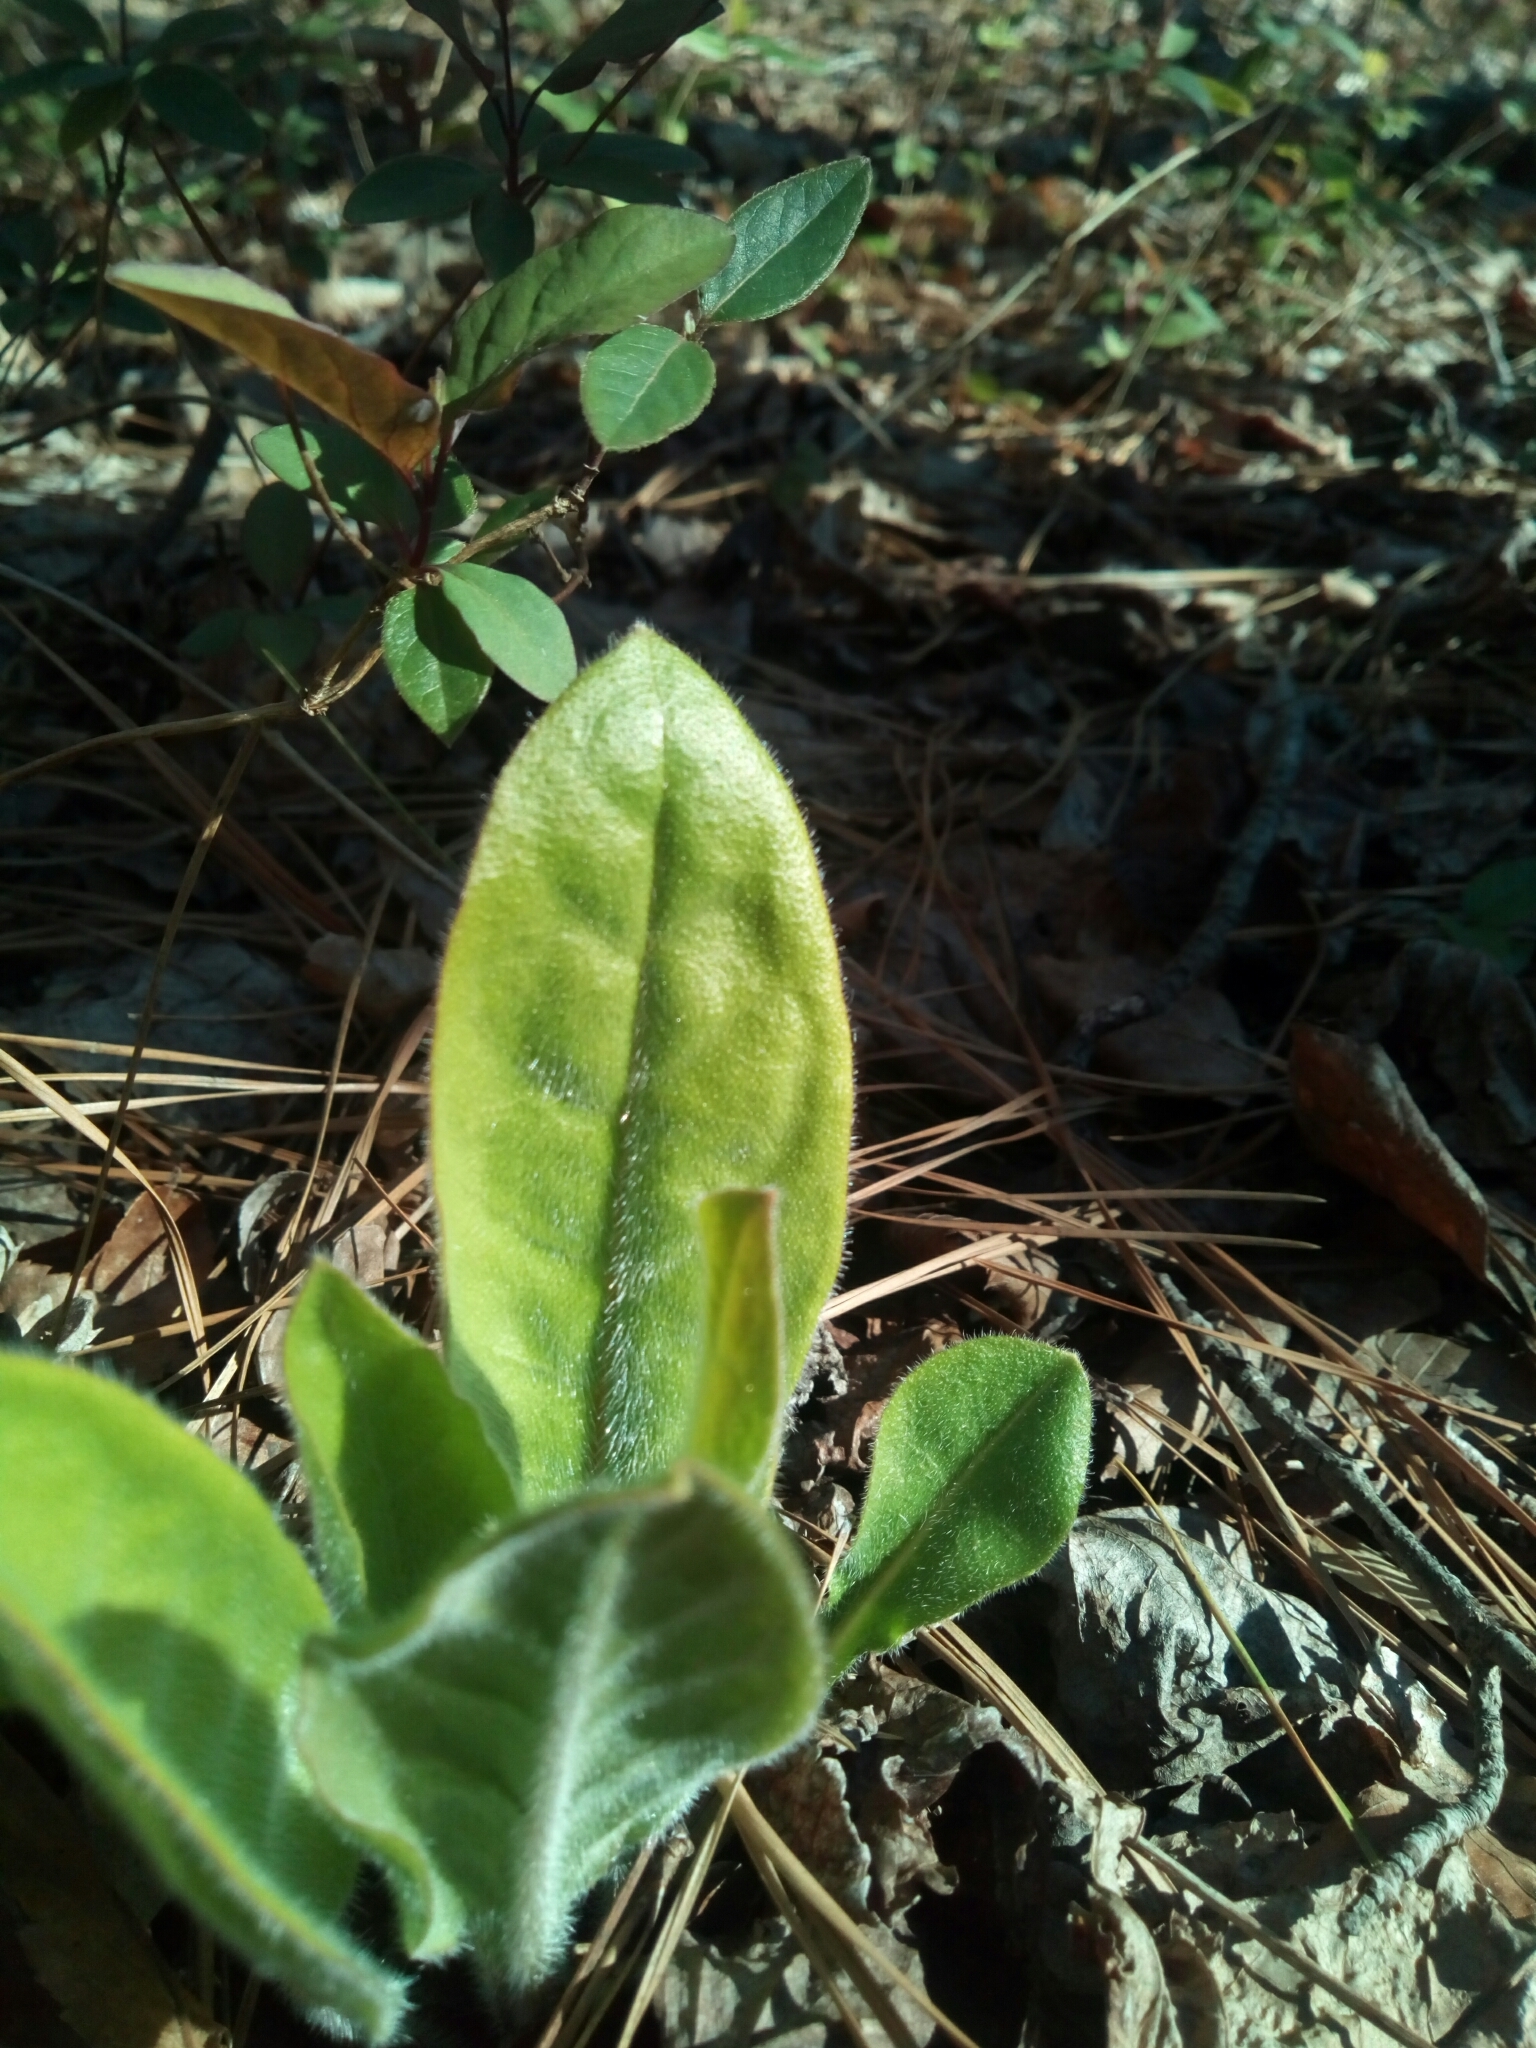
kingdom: Plantae
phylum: Tracheophyta
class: Magnoliopsida
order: Boraginales
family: Boraginaceae
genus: Andersonglossum
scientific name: Andersonglossum virginianum
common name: Wild comfrey
